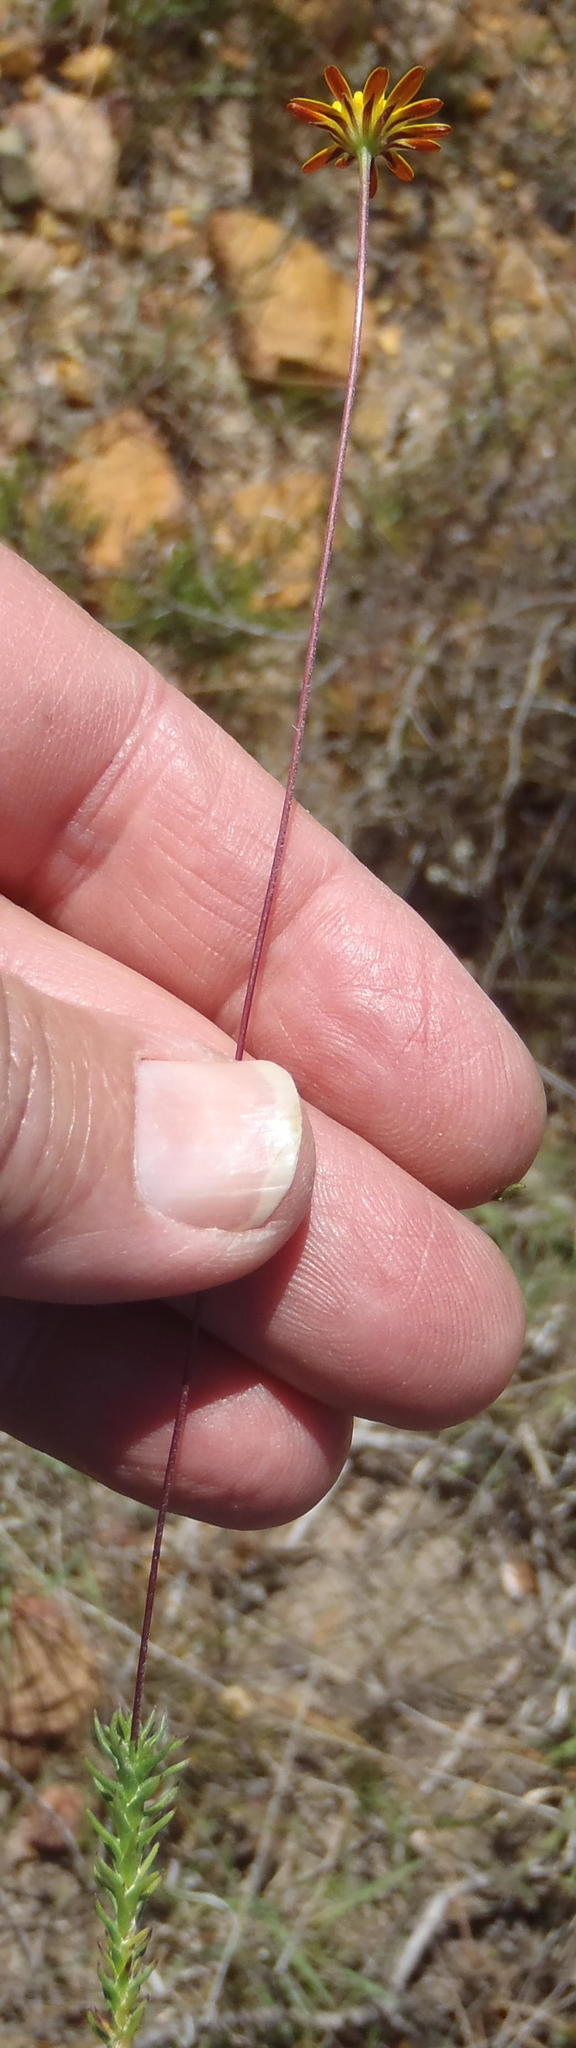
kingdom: Plantae
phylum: Tracheophyta
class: Magnoliopsida
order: Asterales
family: Asteraceae
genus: Euryops
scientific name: Euryops ericoides
